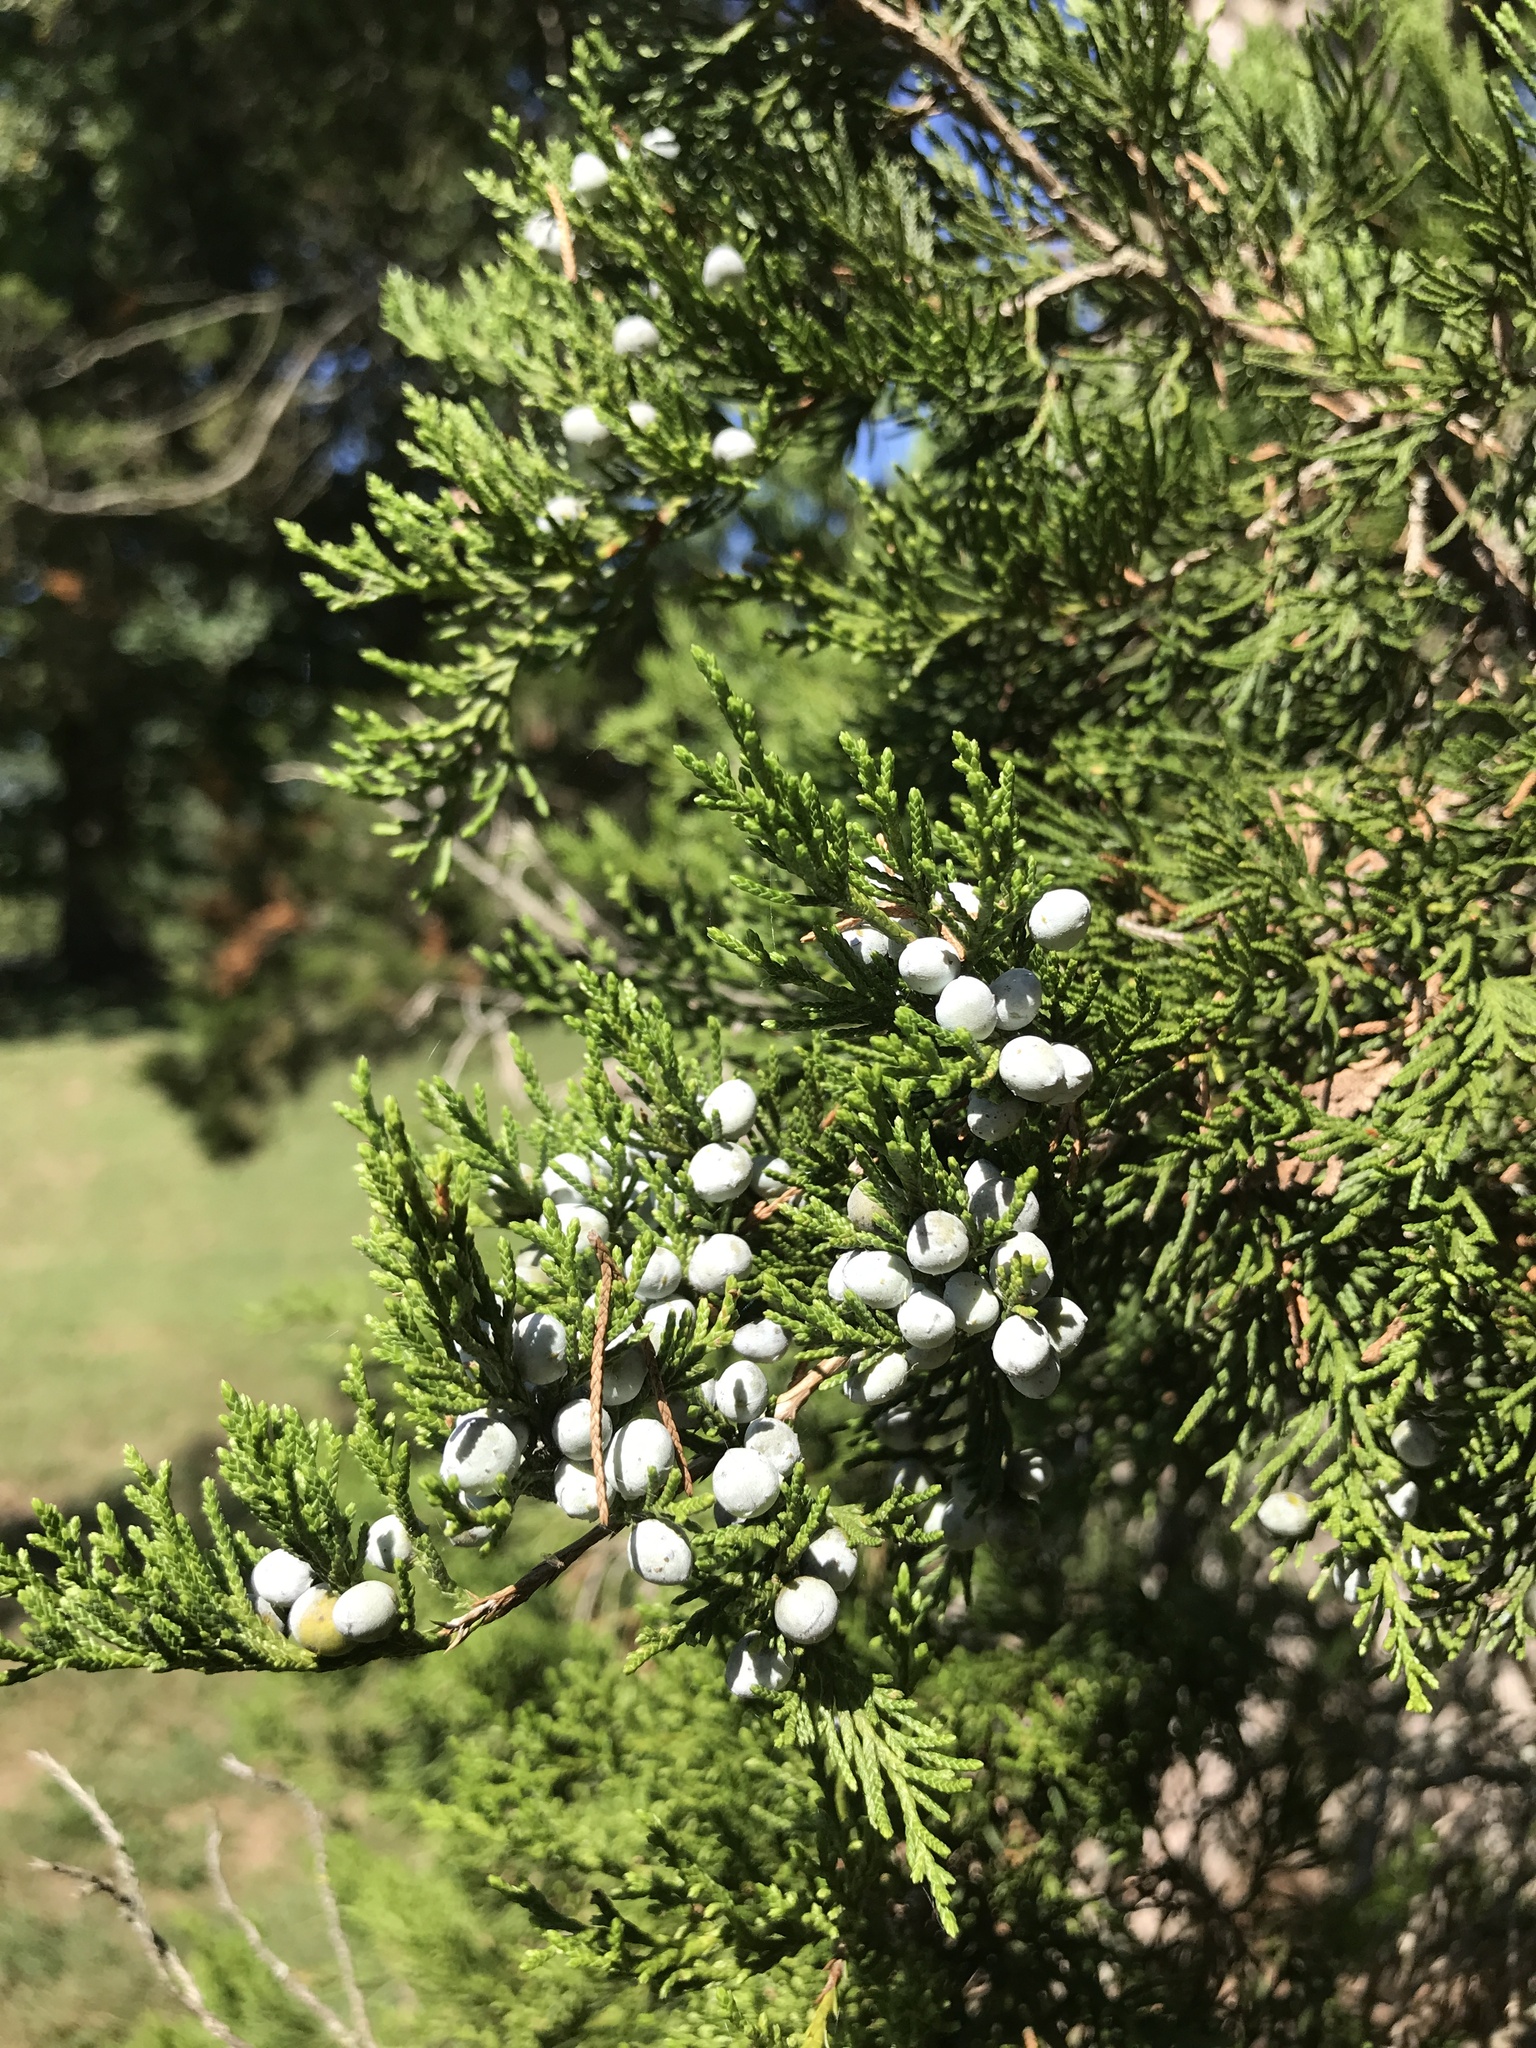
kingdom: Plantae
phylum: Tracheophyta
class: Pinopsida
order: Pinales
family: Cupressaceae
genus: Juniperus
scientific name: Juniperus virginiana
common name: Red juniper
